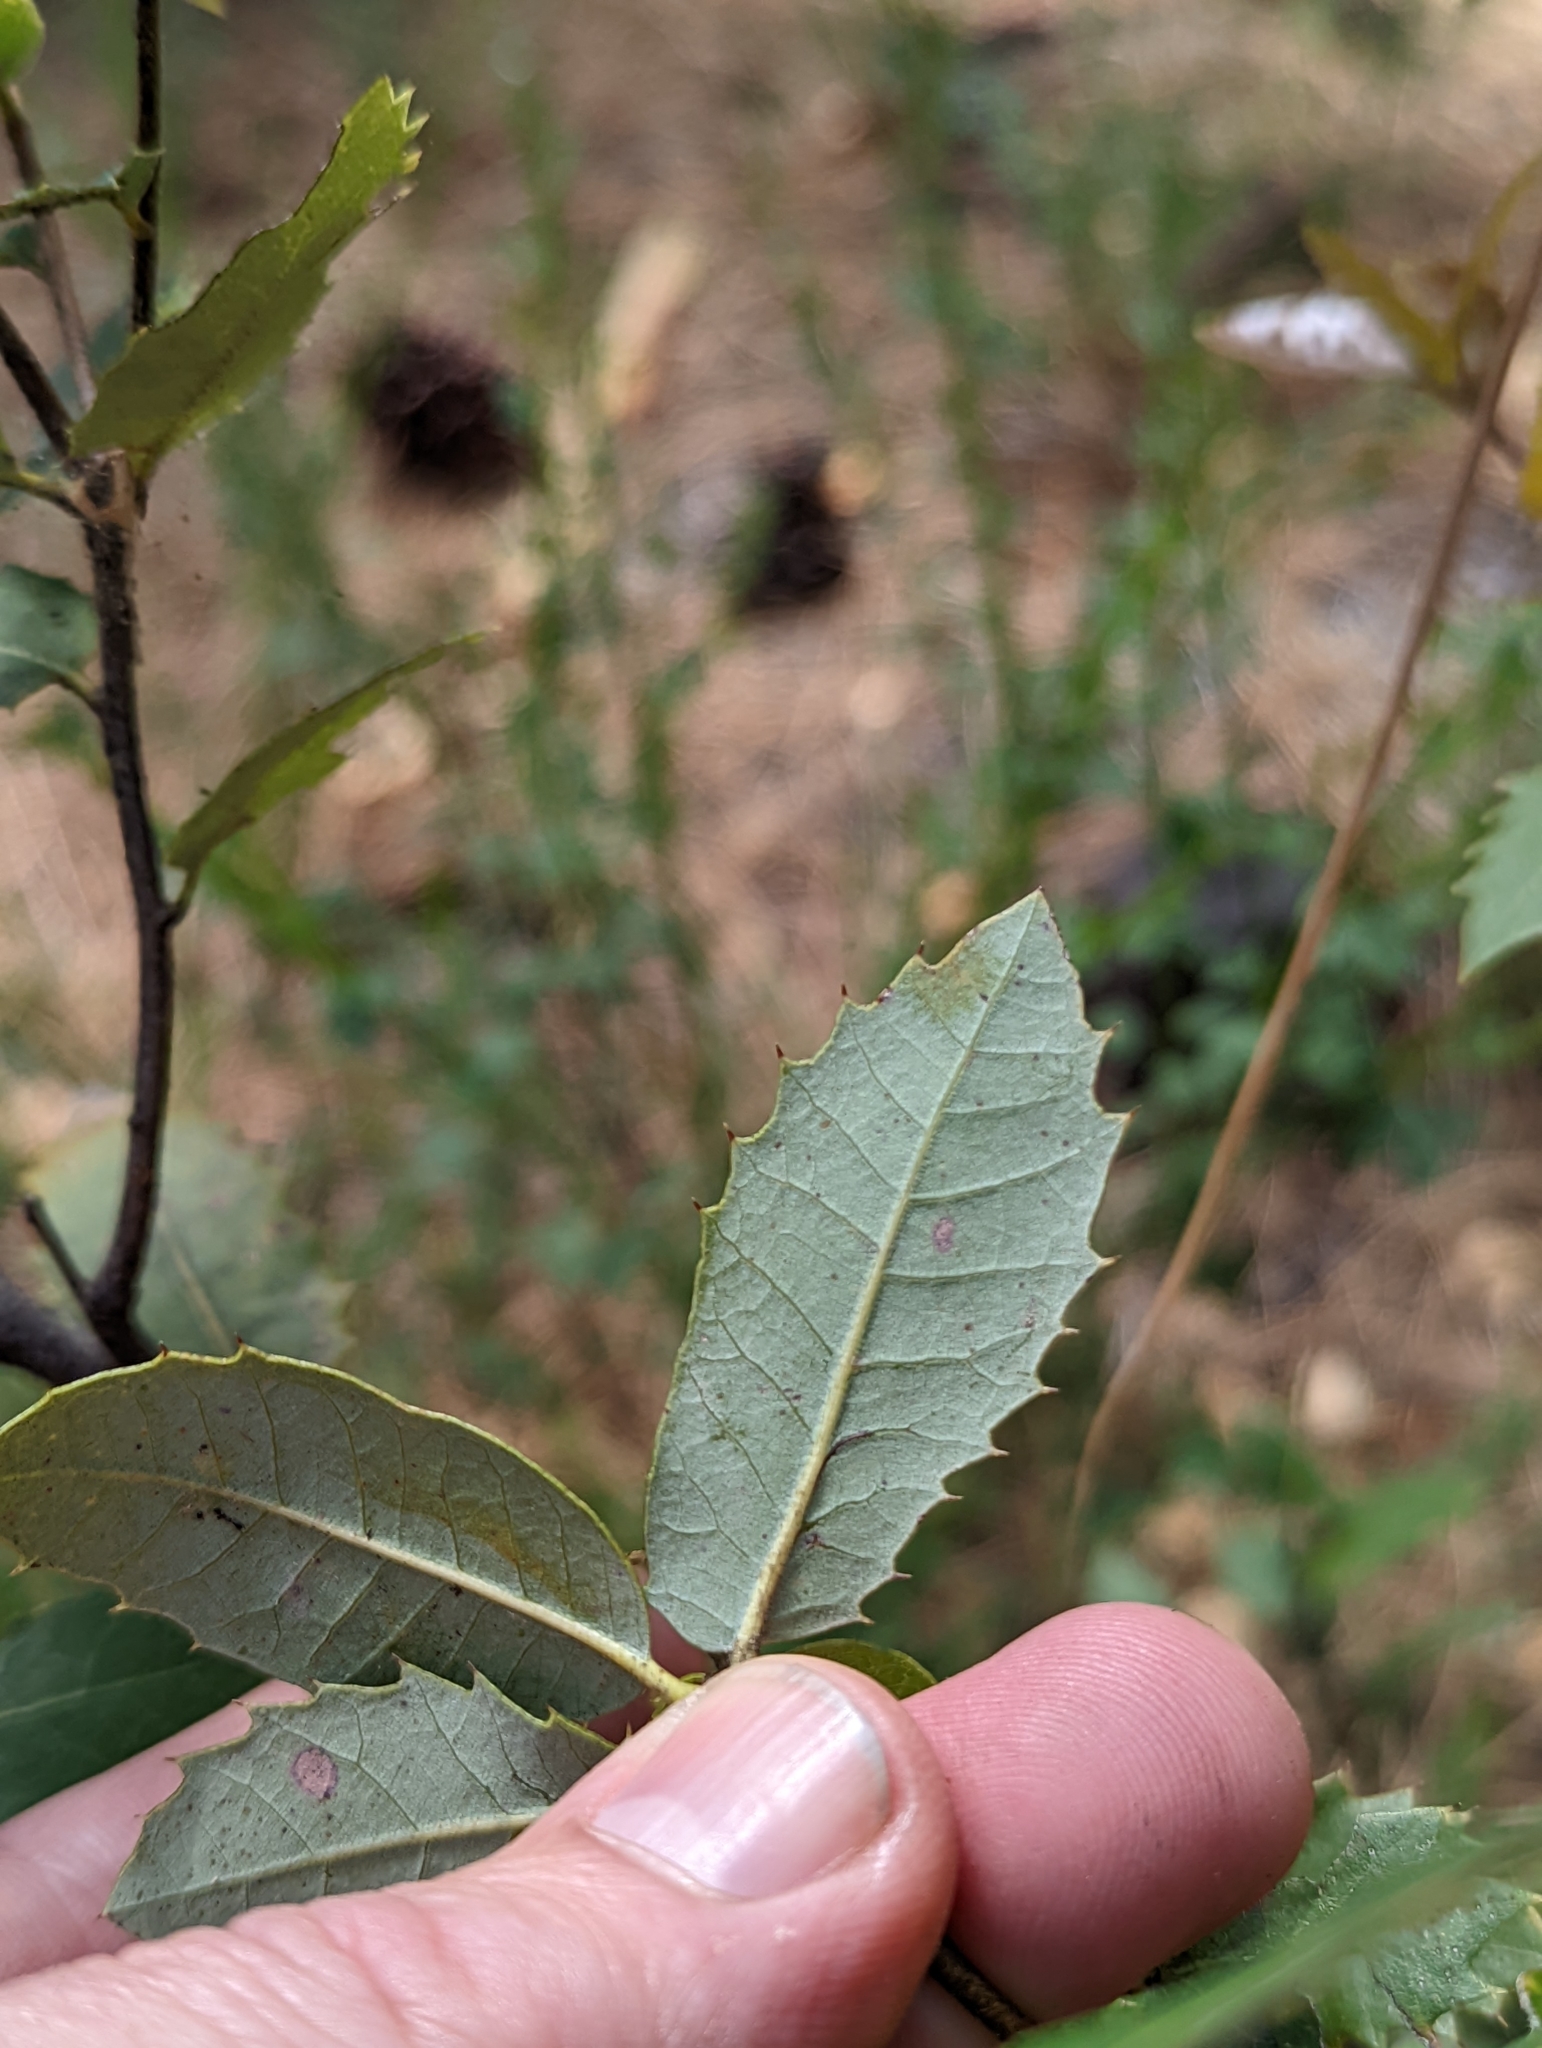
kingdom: Plantae
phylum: Tracheophyta
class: Magnoliopsida
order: Fagales
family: Fagaceae
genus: Quercus
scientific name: Quercus chrysolepis
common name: Canyon live oak
